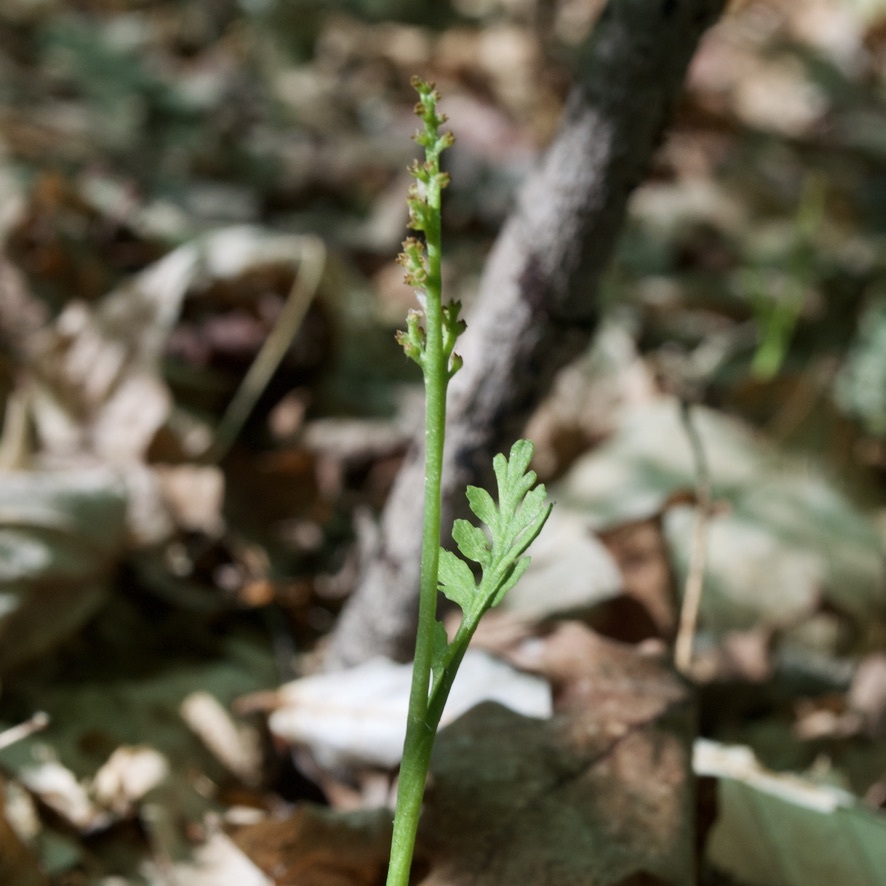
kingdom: Plantae
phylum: Tracheophyta
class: Polypodiopsida
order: Ophioglossales
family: Ophioglossaceae
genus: Botrychium
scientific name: Botrychium matricariifolium
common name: Branched moonwort
